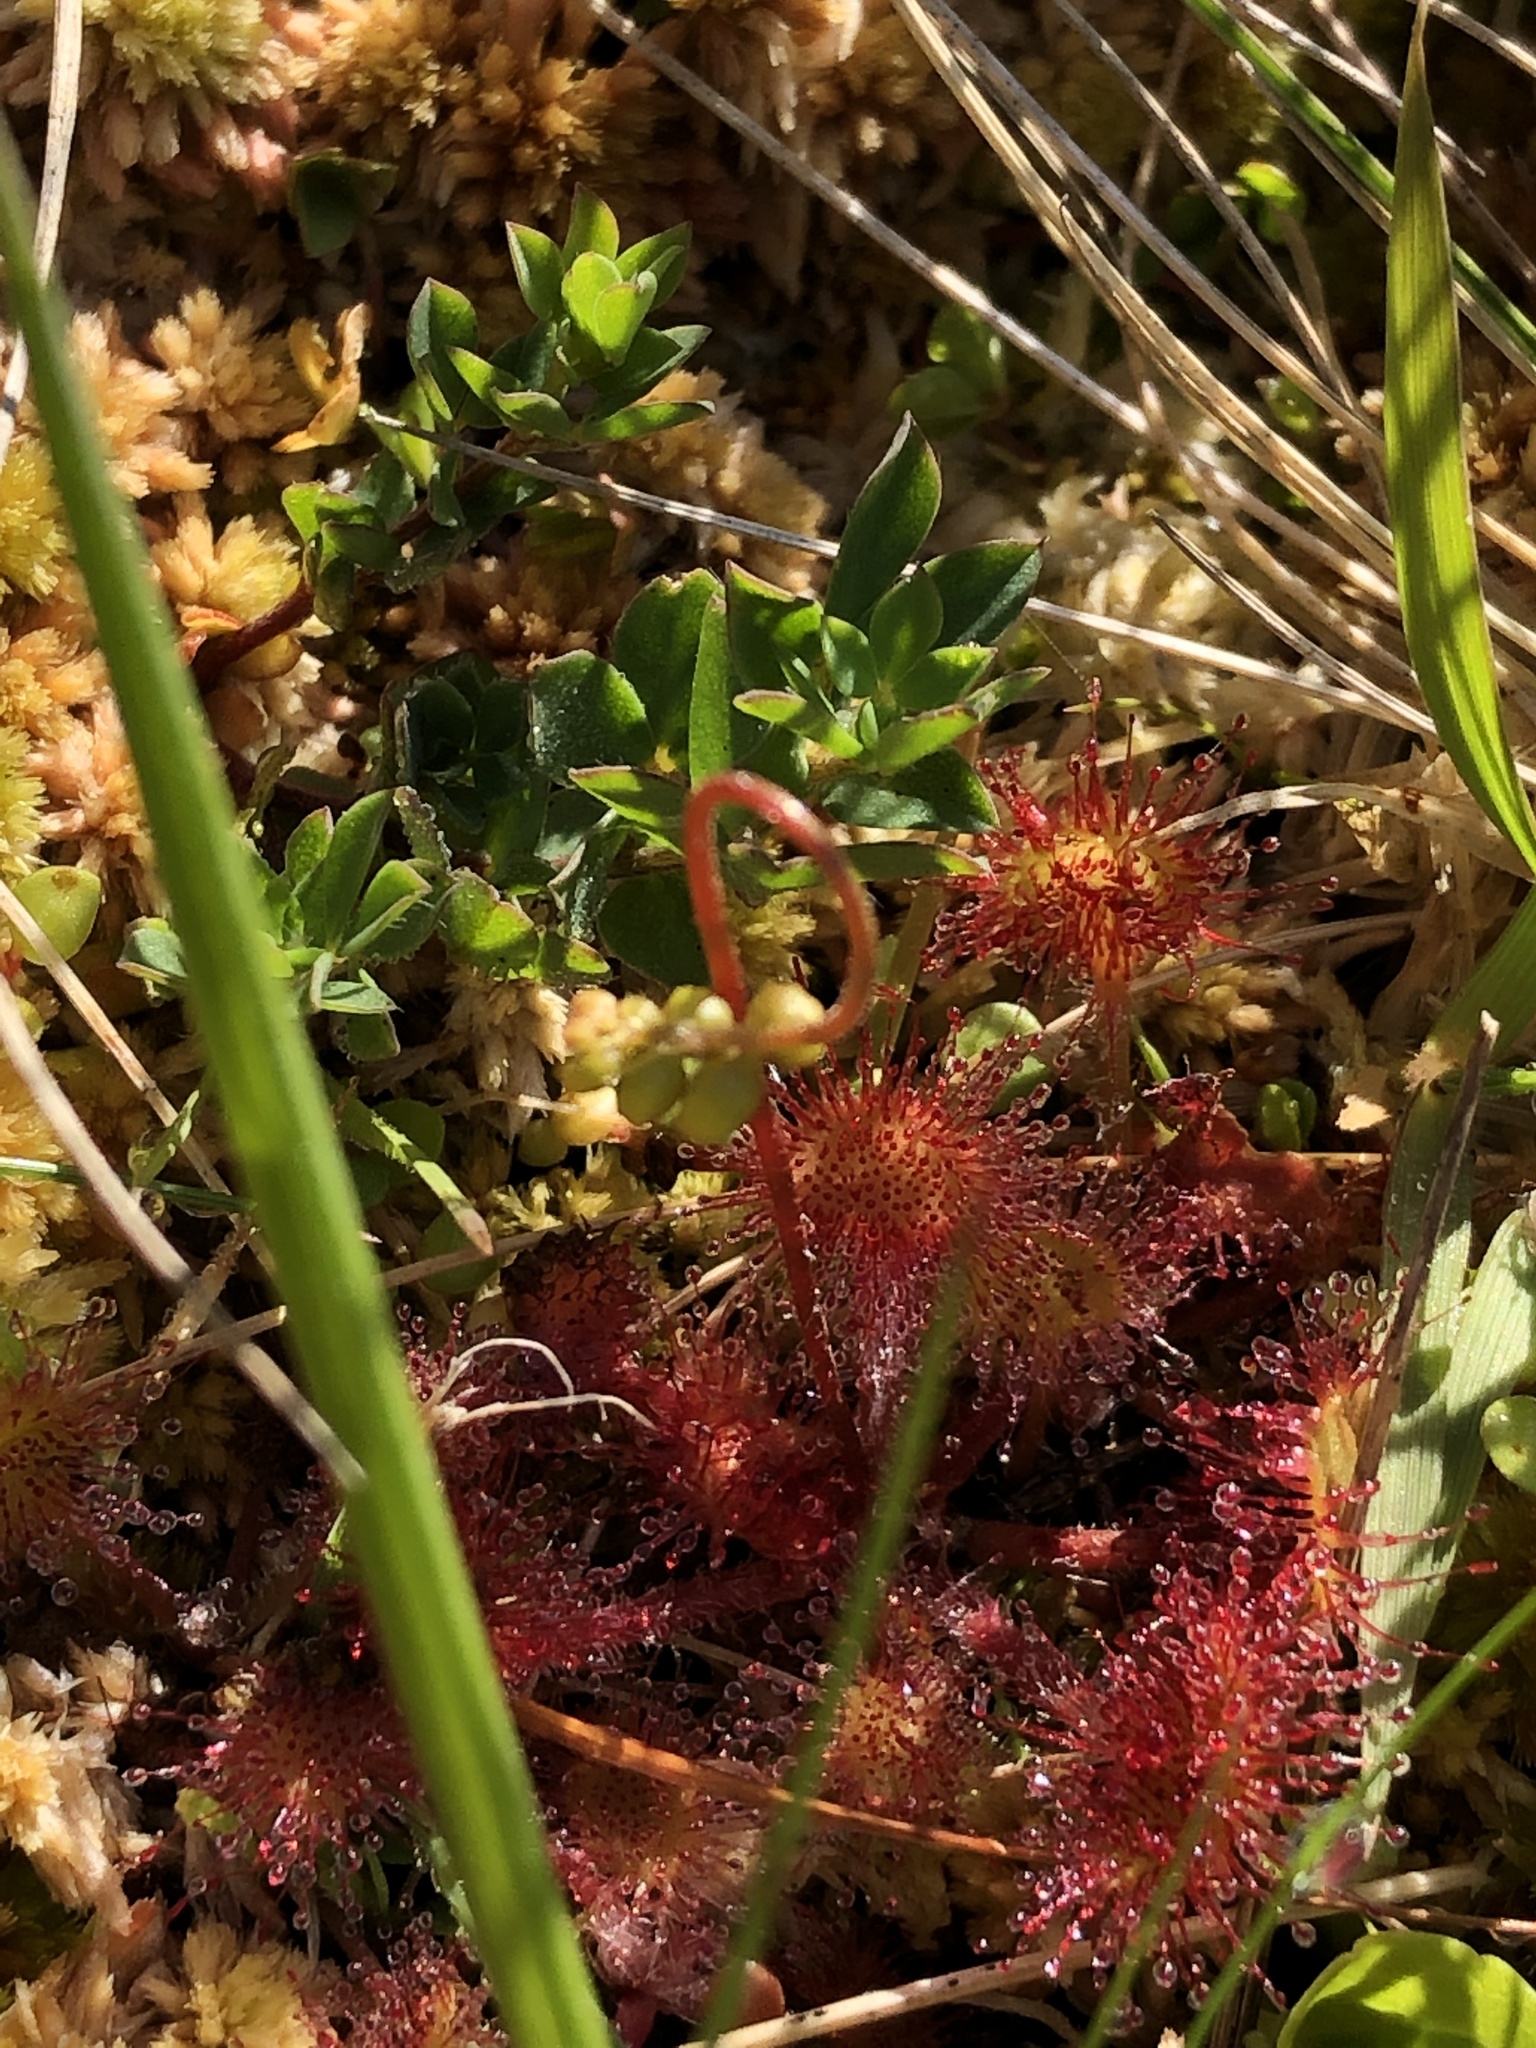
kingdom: Plantae
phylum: Tracheophyta
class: Magnoliopsida
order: Caryophyllales
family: Droseraceae
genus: Drosera
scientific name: Drosera rotundifolia
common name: Round-leaved sundew
